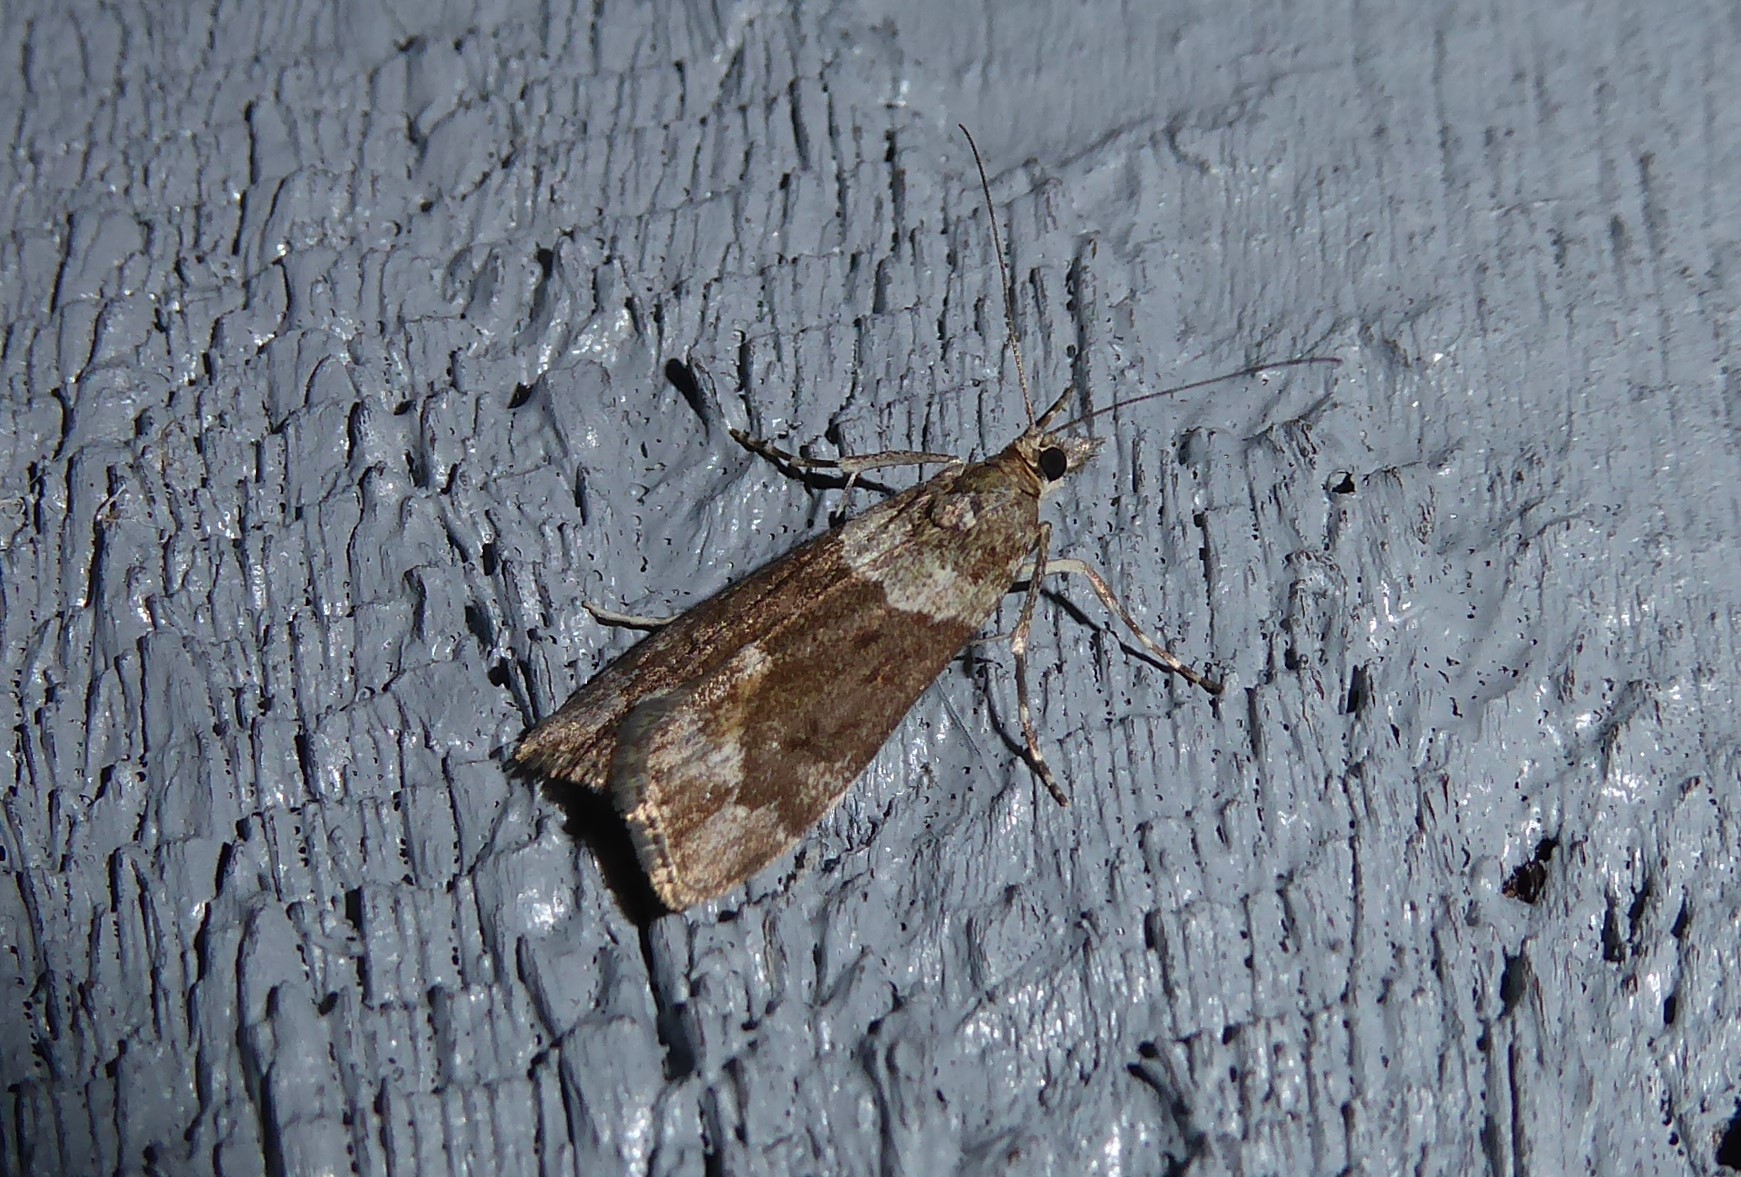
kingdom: Animalia
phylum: Arthropoda
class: Insecta
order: Lepidoptera
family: Crambidae
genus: Eudonia
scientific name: Eudonia submarginalis
